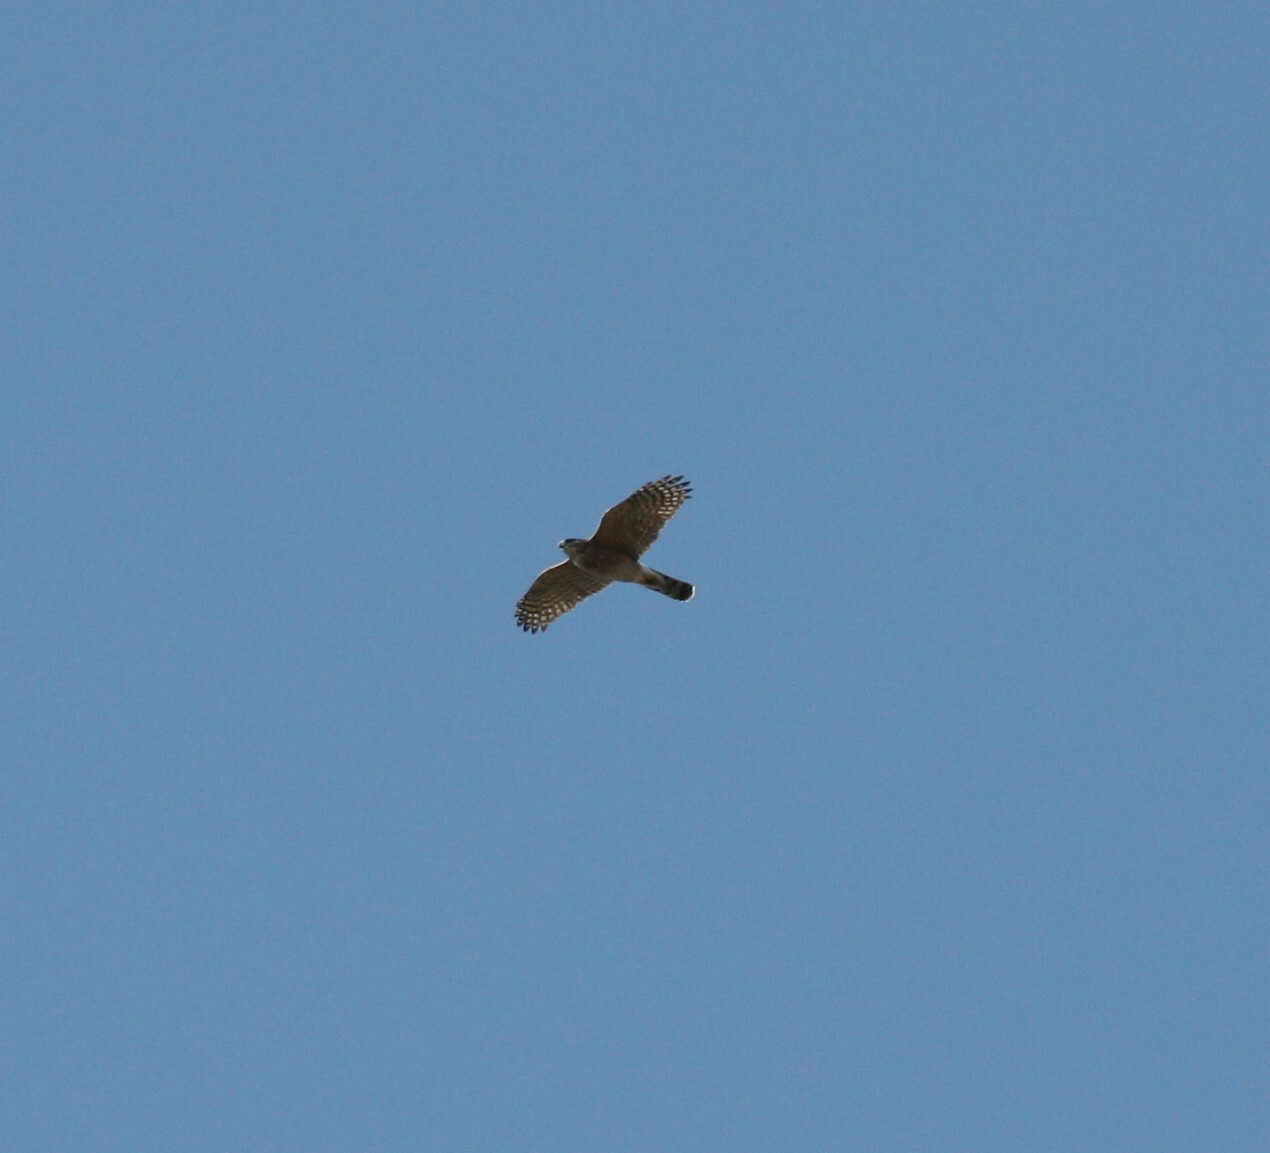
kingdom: Animalia
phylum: Chordata
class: Aves
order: Accipitriformes
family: Accipitridae
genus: Accipiter
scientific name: Accipiter cooperii
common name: Cooper's hawk
